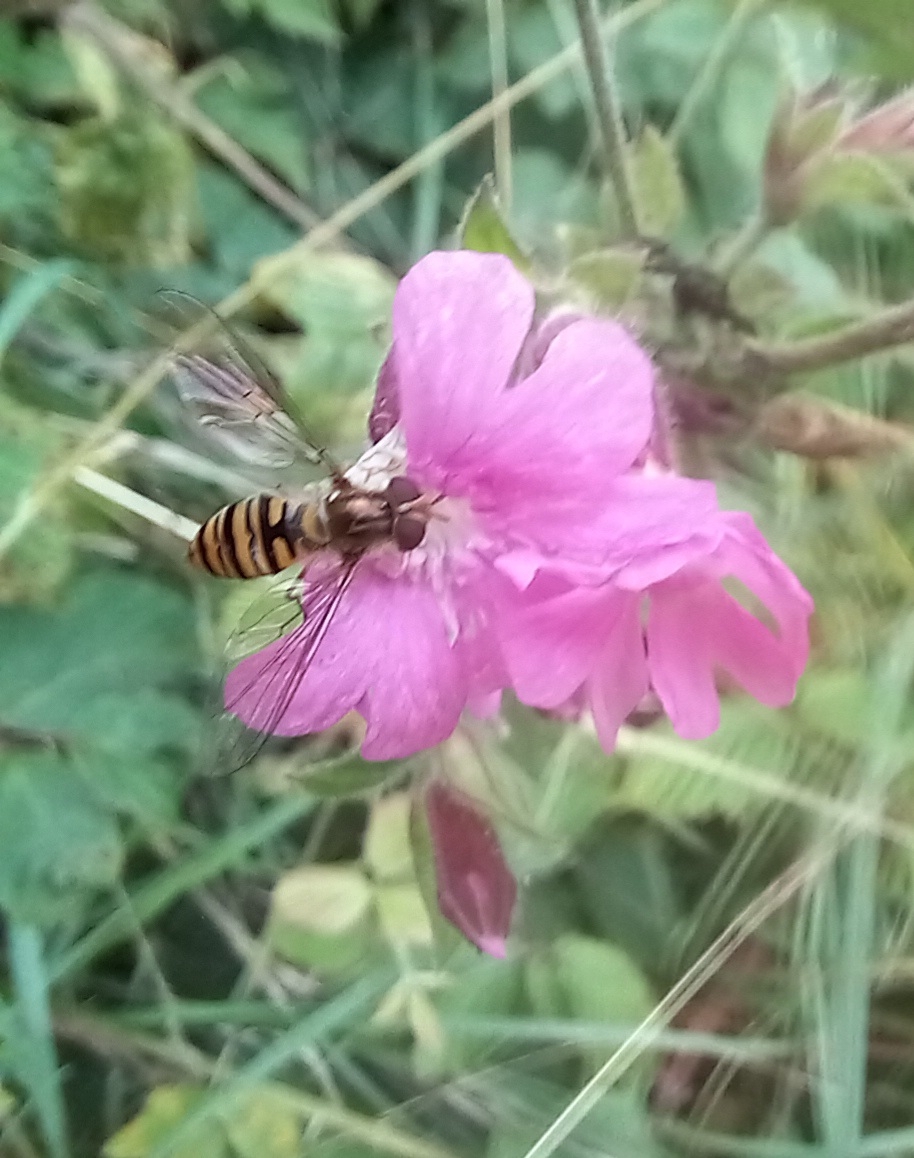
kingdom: Animalia
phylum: Arthropoda
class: Insecta
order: Diptera
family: Syrphidae
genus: Episyrphus
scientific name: Episyrphus balteatus
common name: Marmalade hoverfly
